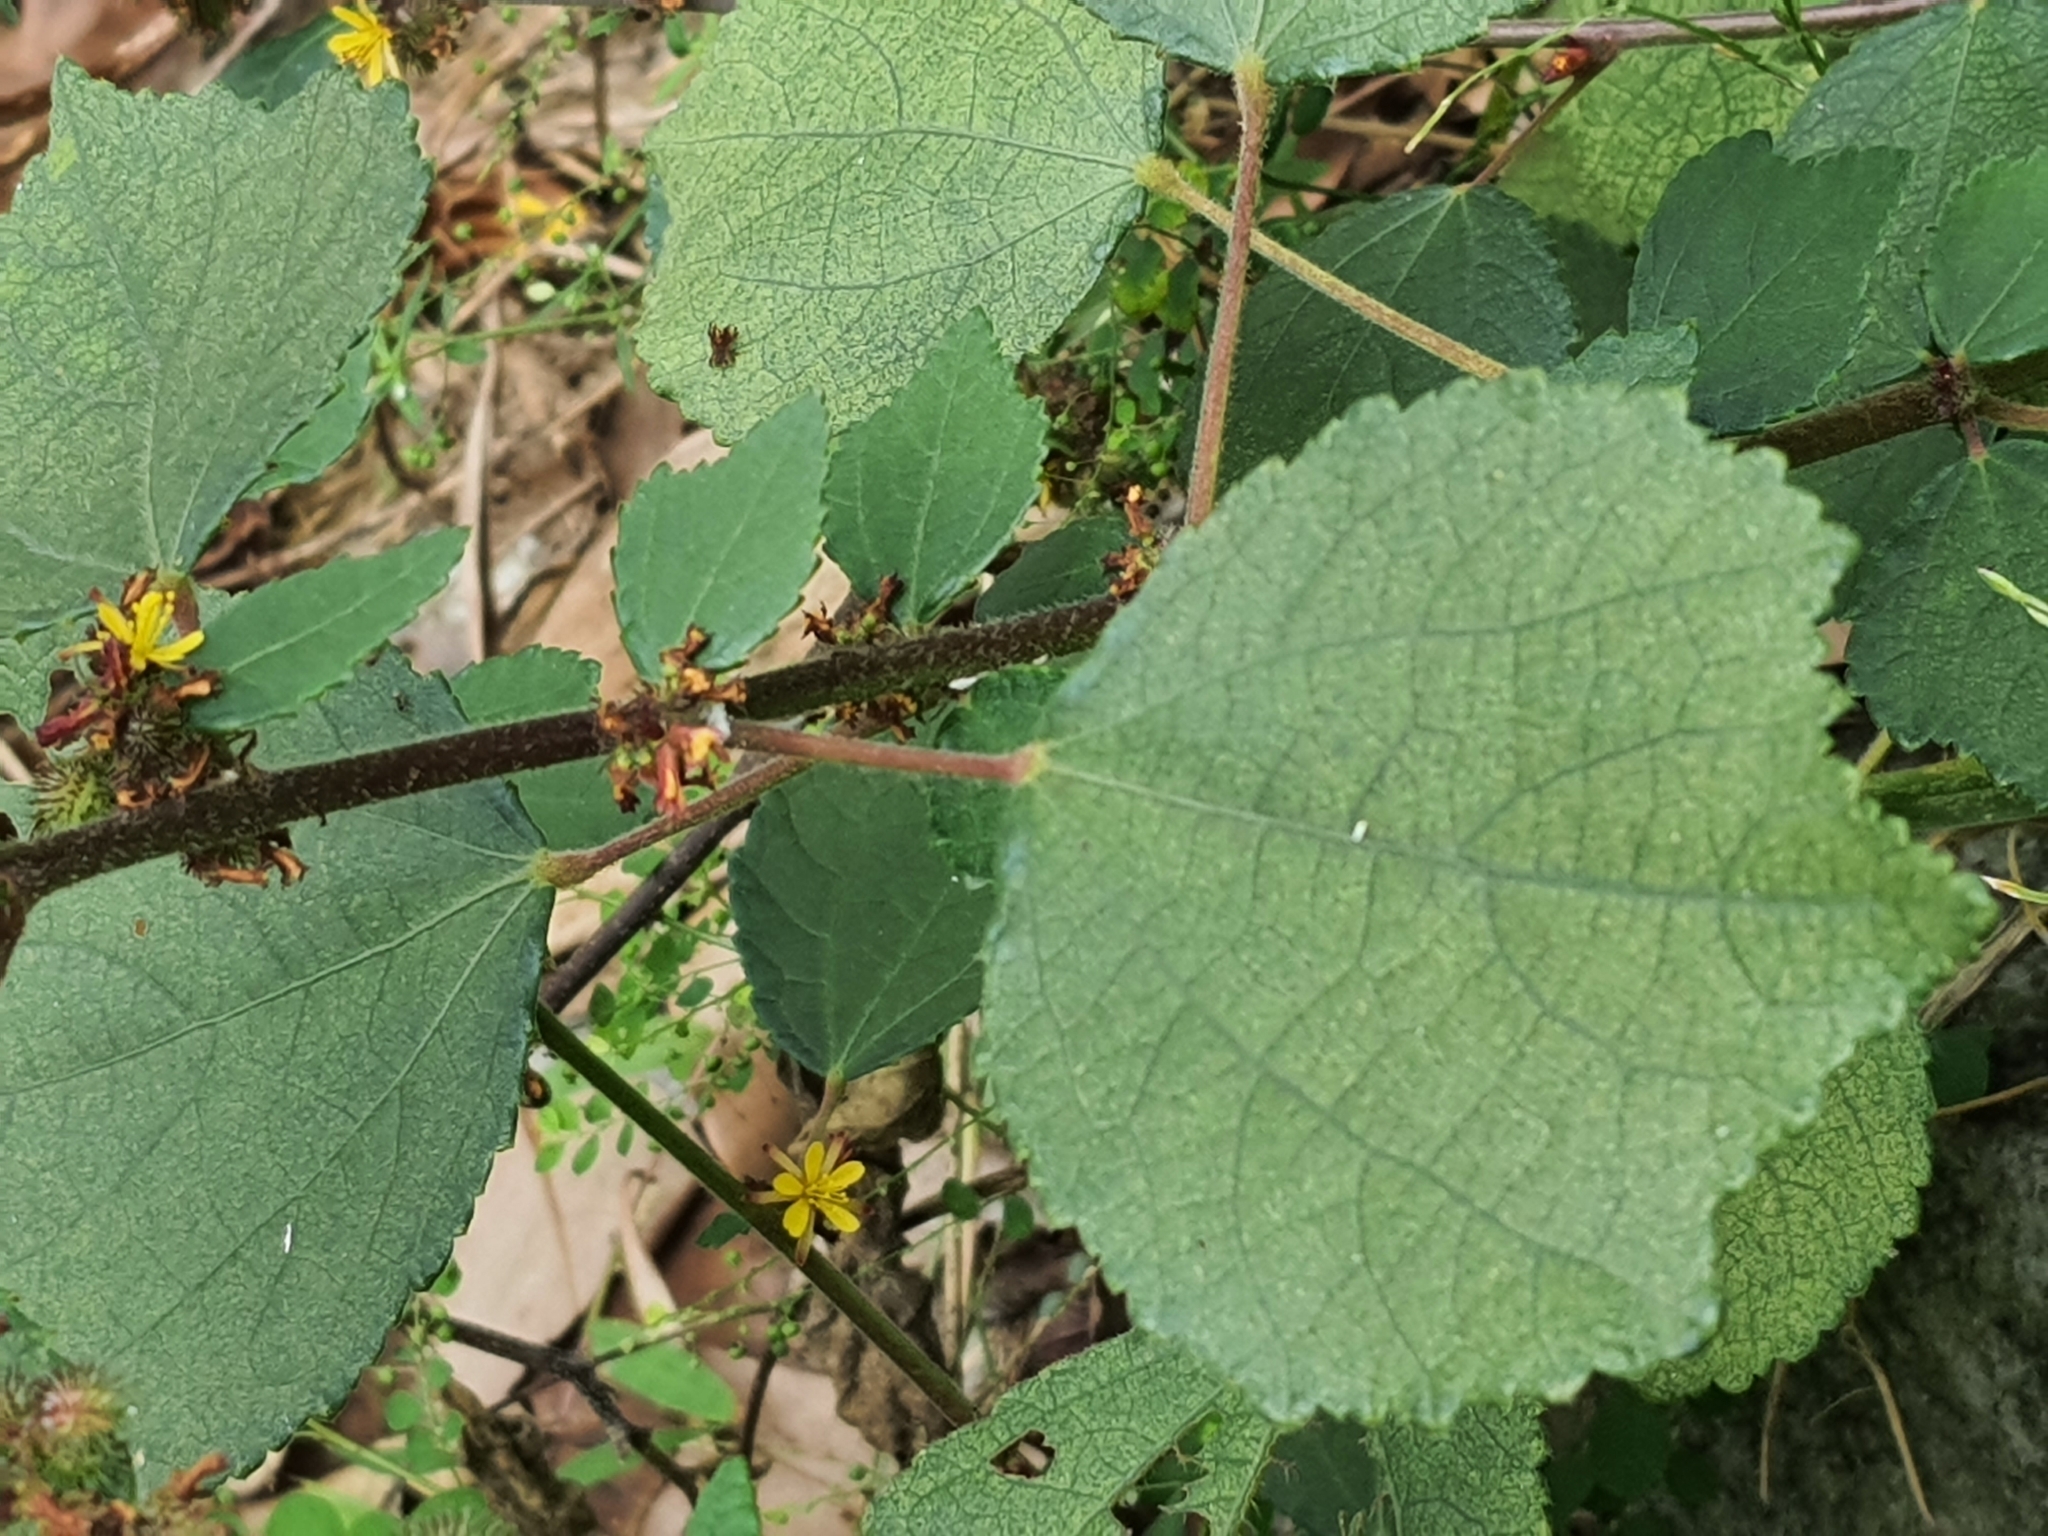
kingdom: Plantae
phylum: Tracheophyta
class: Magnoliopsida
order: Malvales
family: Malvaceae
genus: Triumfetta
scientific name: Triumfetta rhomboidea
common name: Diamond burbark
